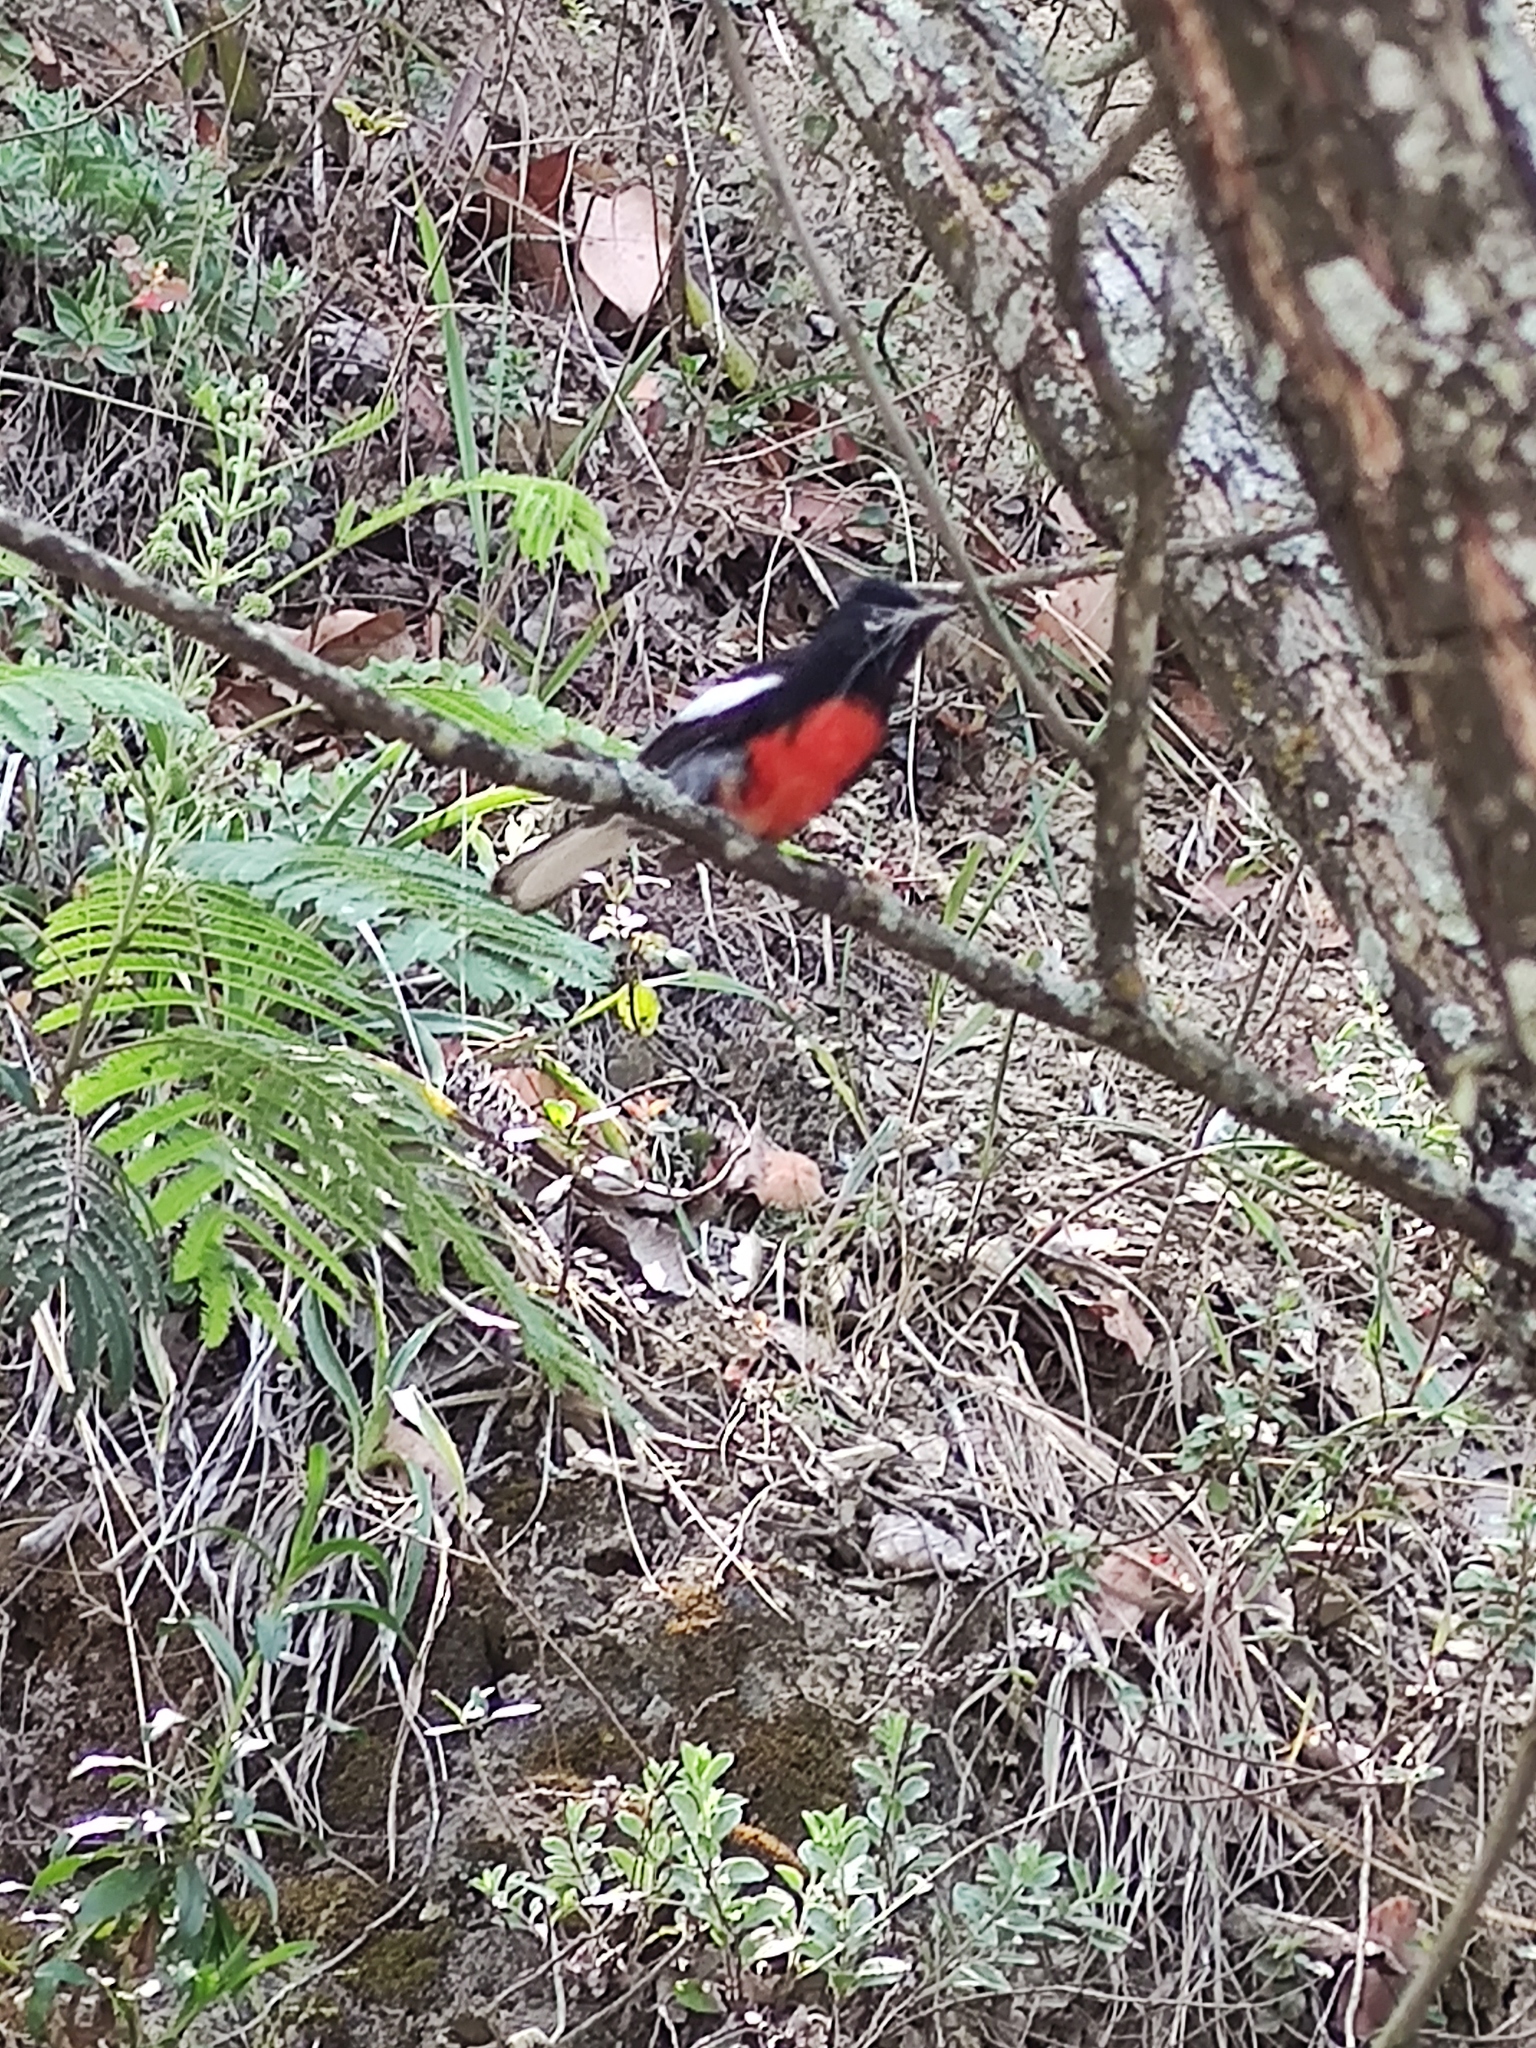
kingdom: Animalia
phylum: Chordata
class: Aves
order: Passeriformes
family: Parulidae
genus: Myioborus
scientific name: Myioborus pictus
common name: Painted whitestart
